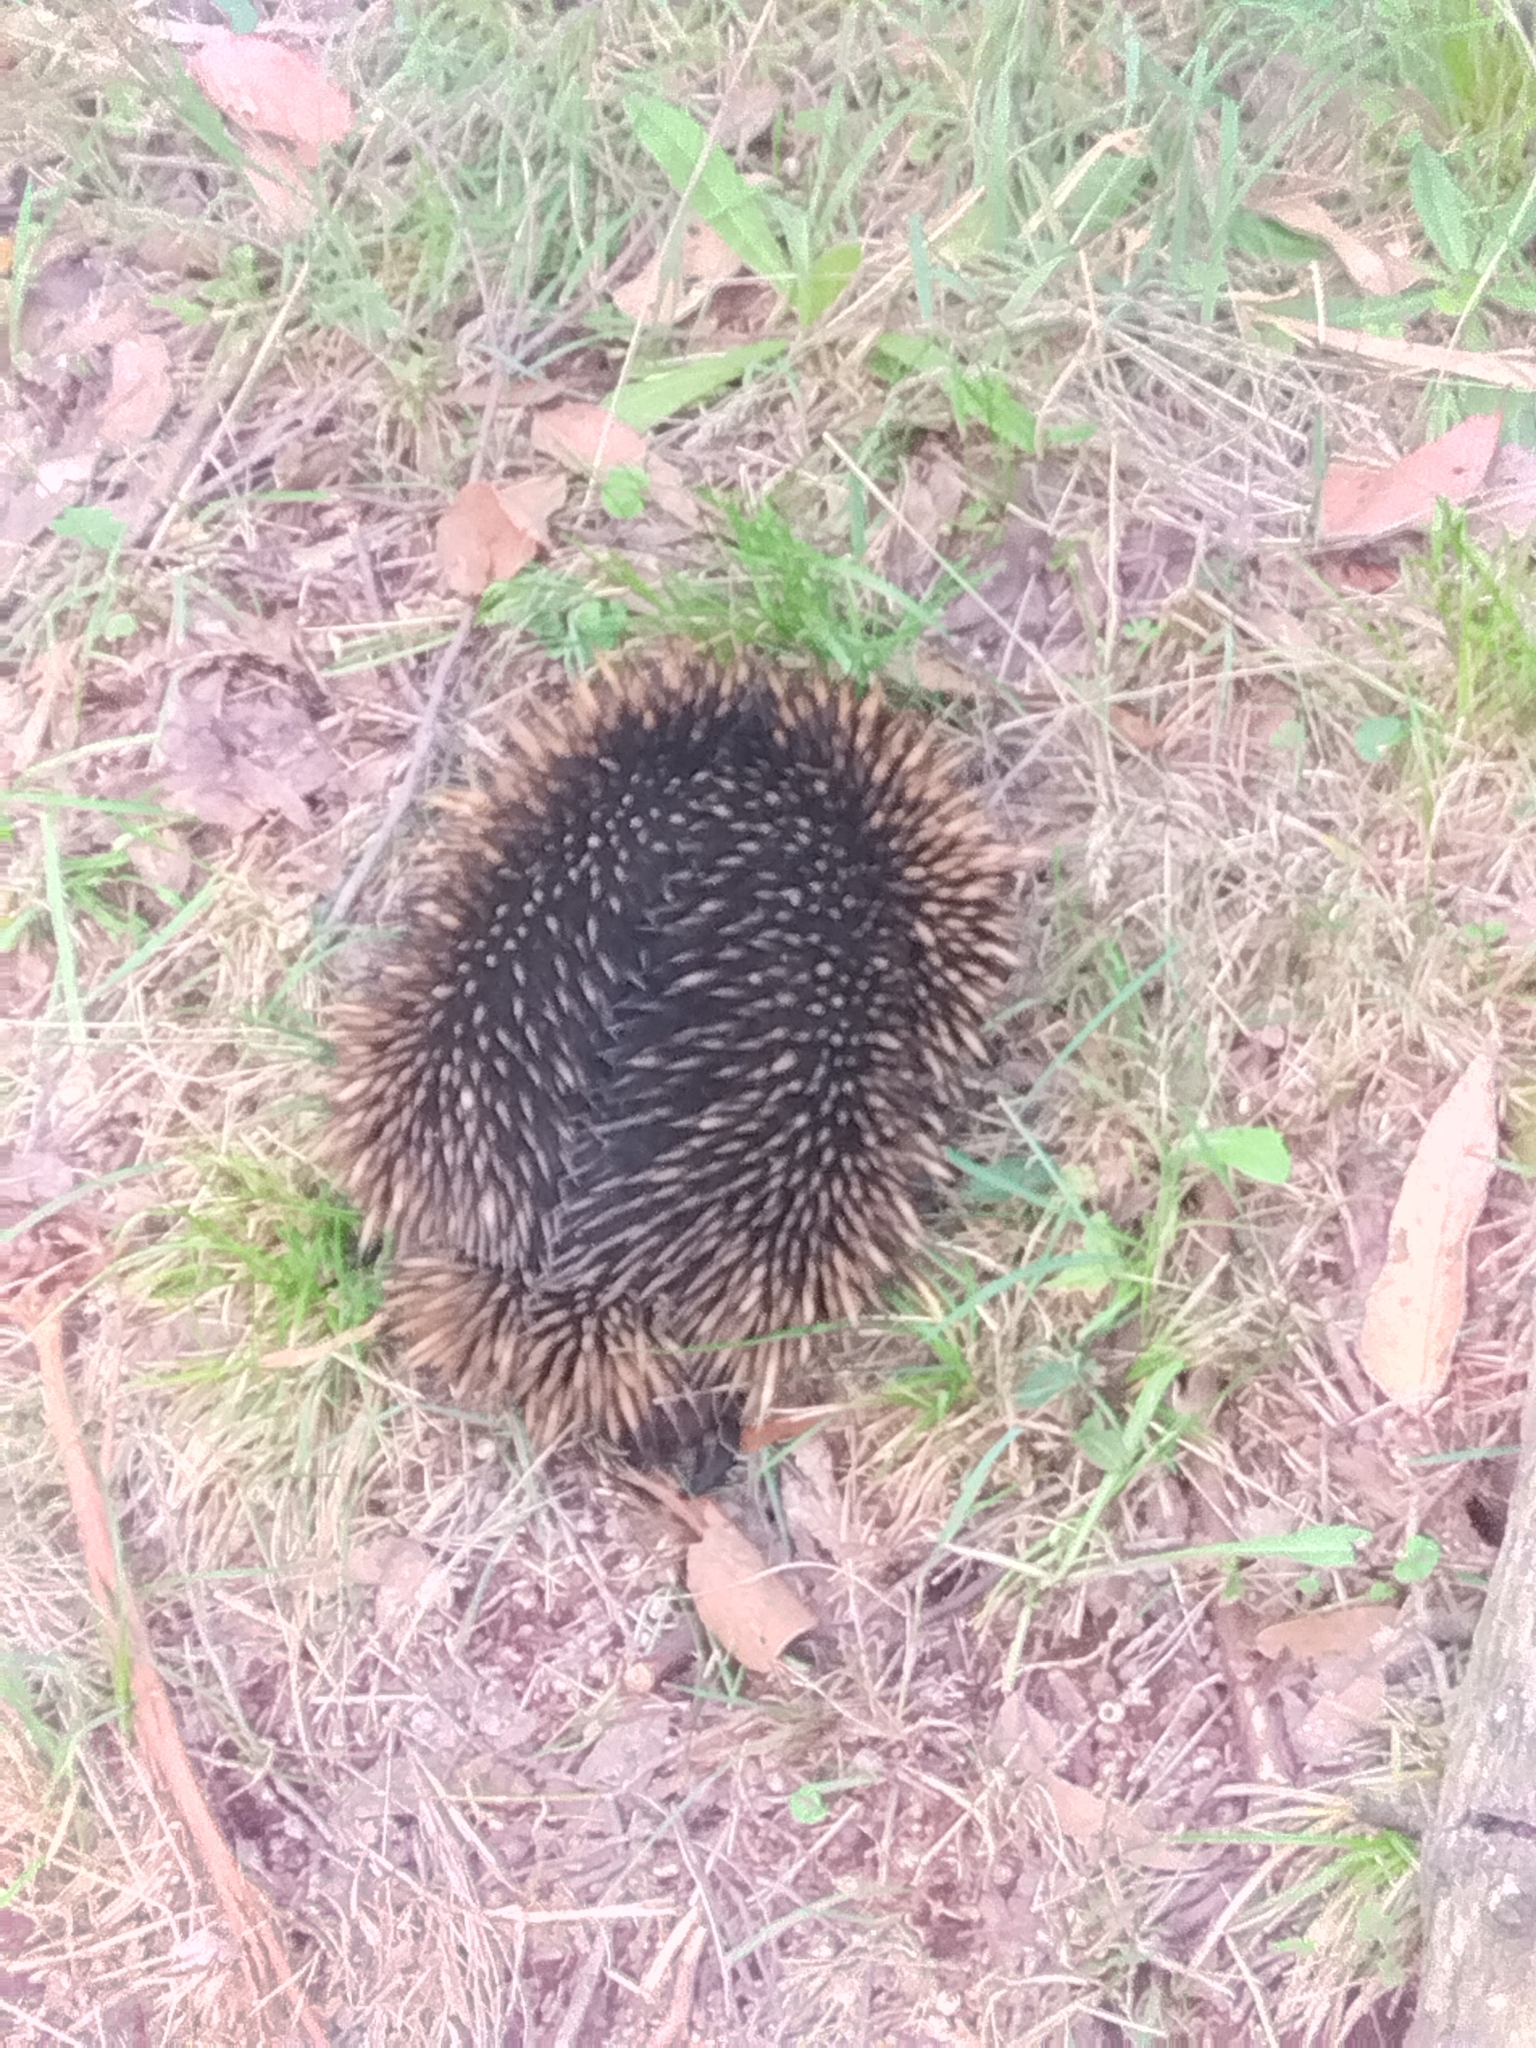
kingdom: Animalia
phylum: Chordata
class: Mammalia
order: Monotremata
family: Tachyglossidae
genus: Tachyglossus
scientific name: Tachyglossus aculeatus
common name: Short-beaked echidna
